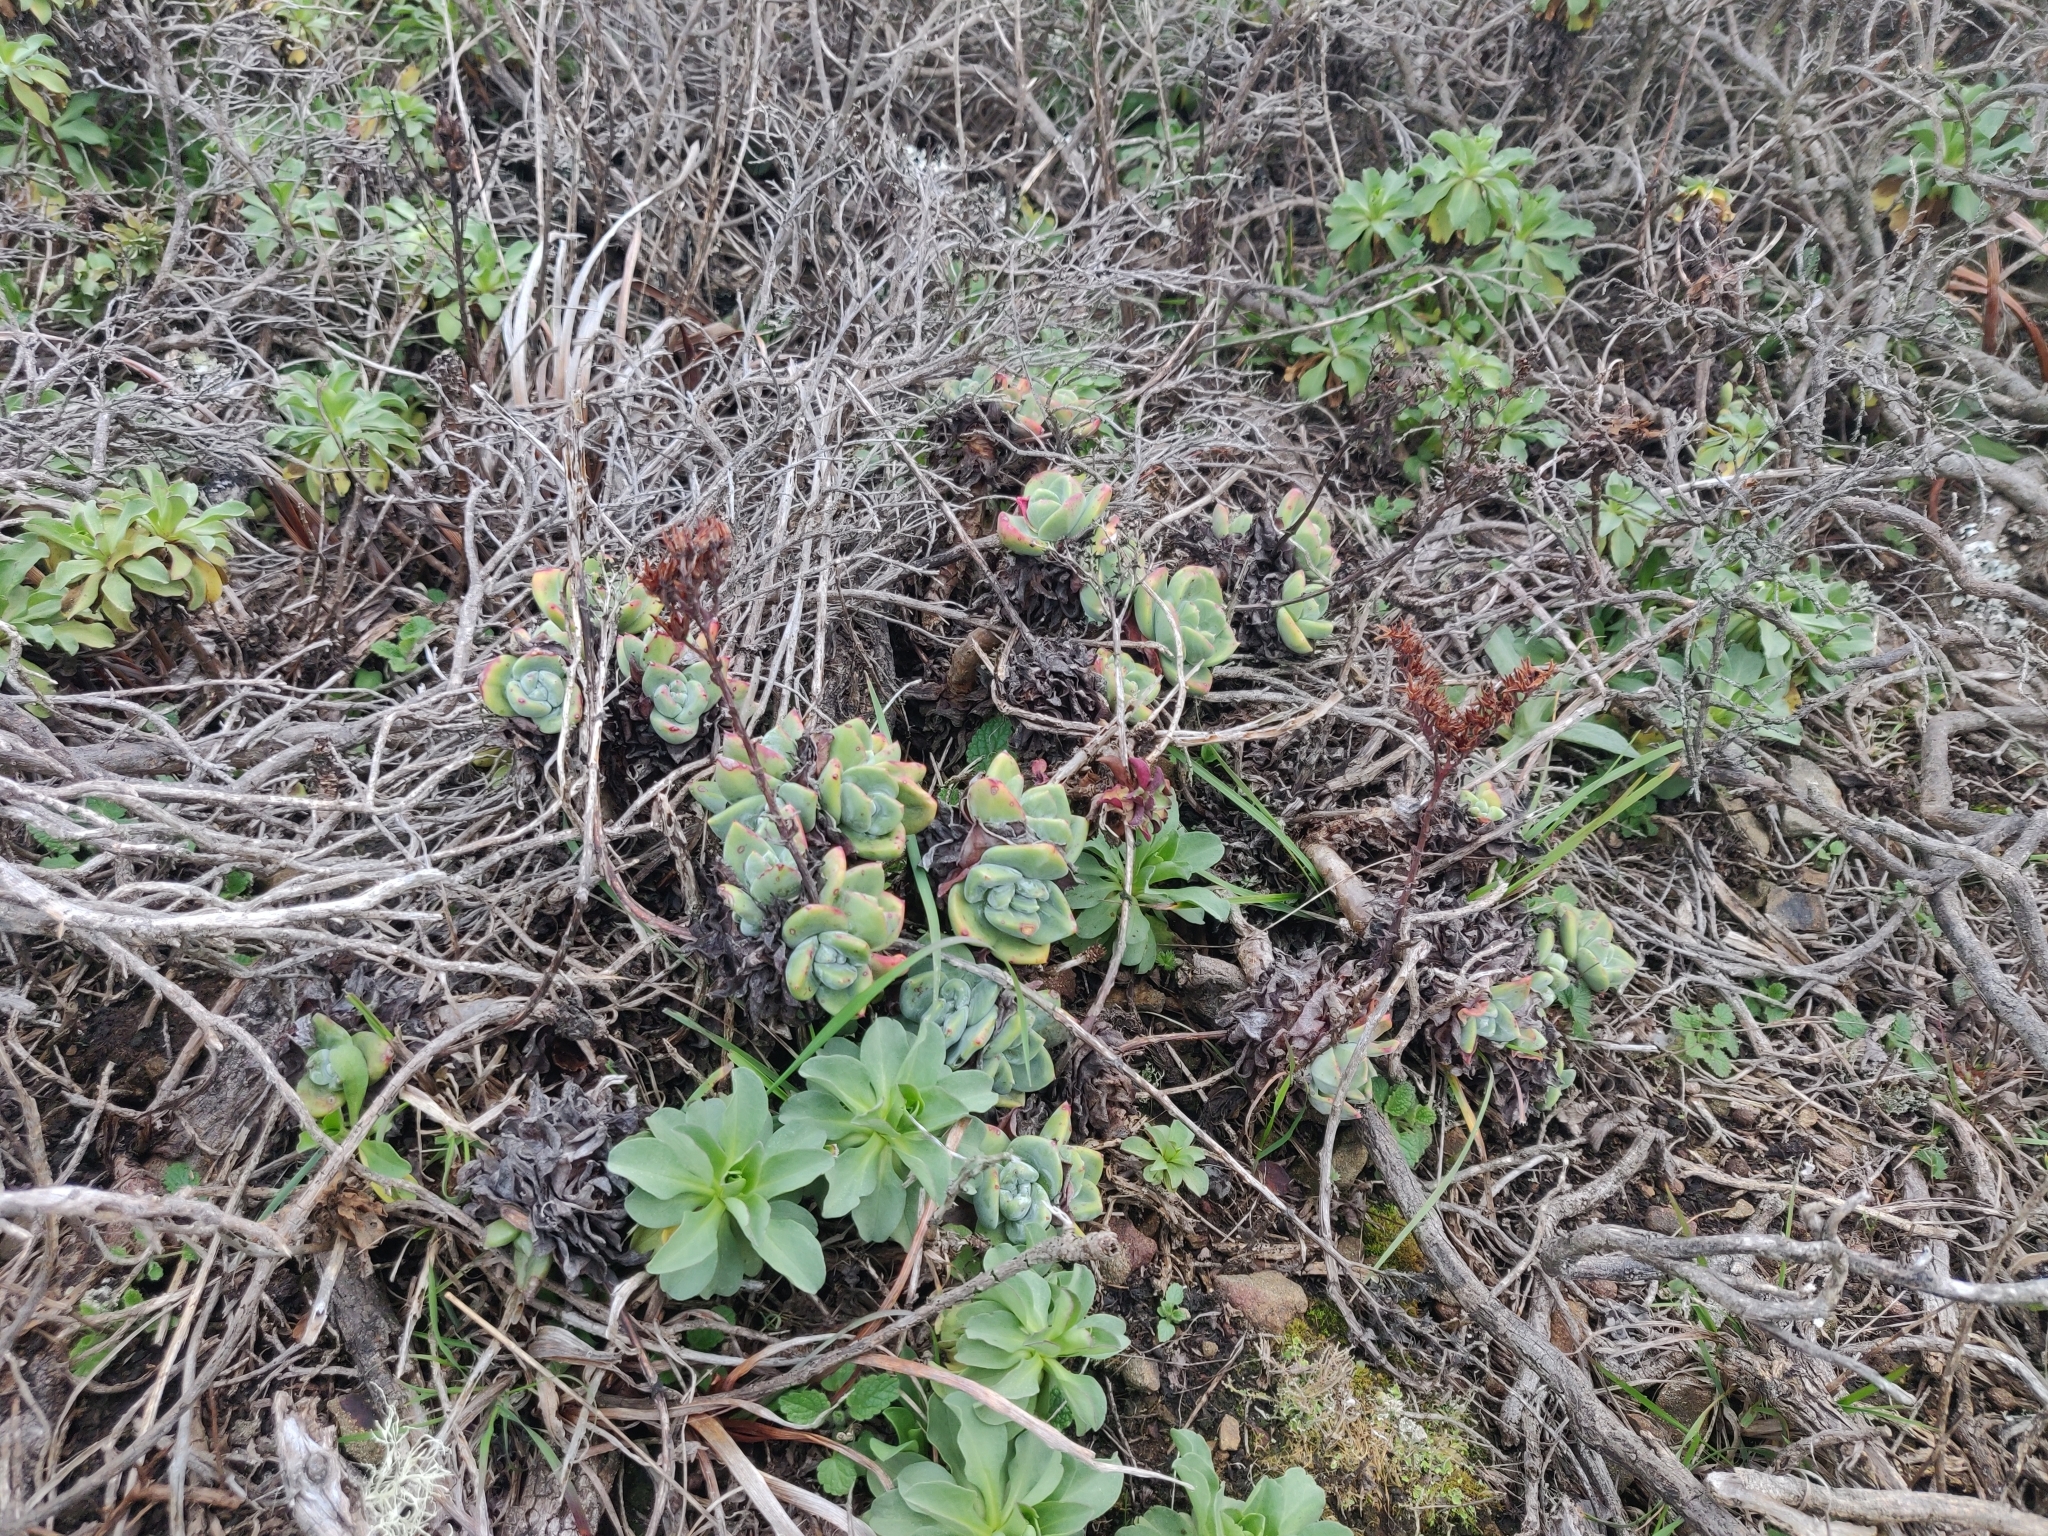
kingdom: Plantae
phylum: Tracheophyta
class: Magnoliopsida
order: Saxifragales
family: Crassulaceae
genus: Dudleya
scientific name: Dudleya farinosa
